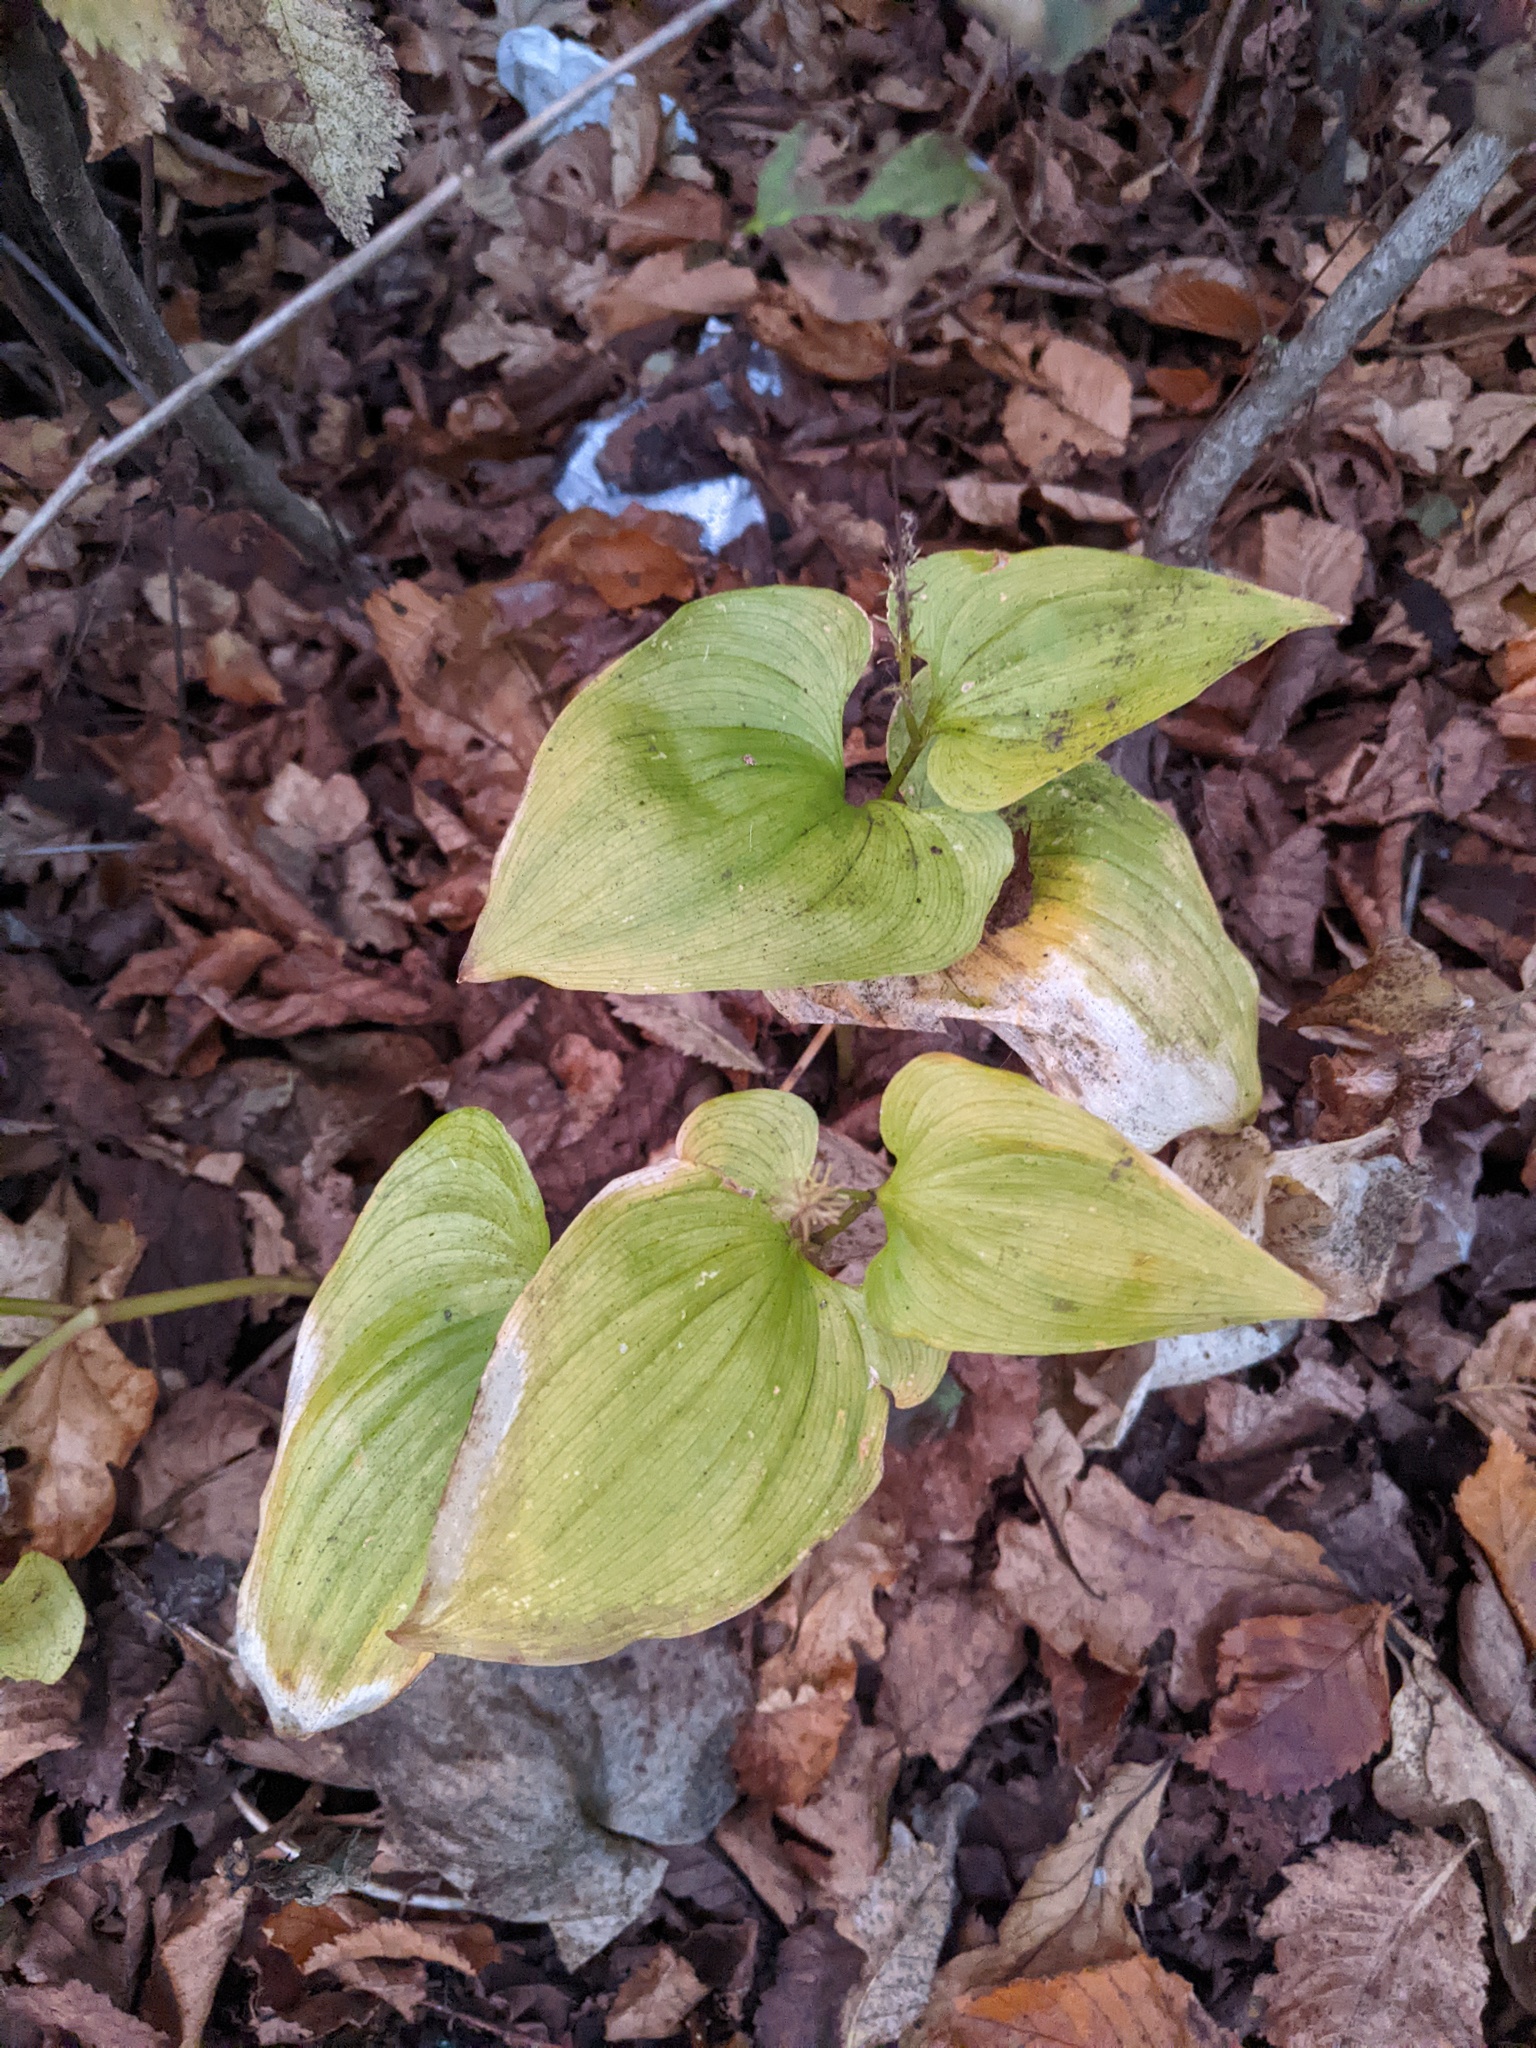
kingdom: Plantae
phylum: Tracheophyta
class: Liliopsida
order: Asparagales
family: Asparagaceae
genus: Maianthemum
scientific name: Maianthemum dilatatum
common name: False lily-of-the-valley
